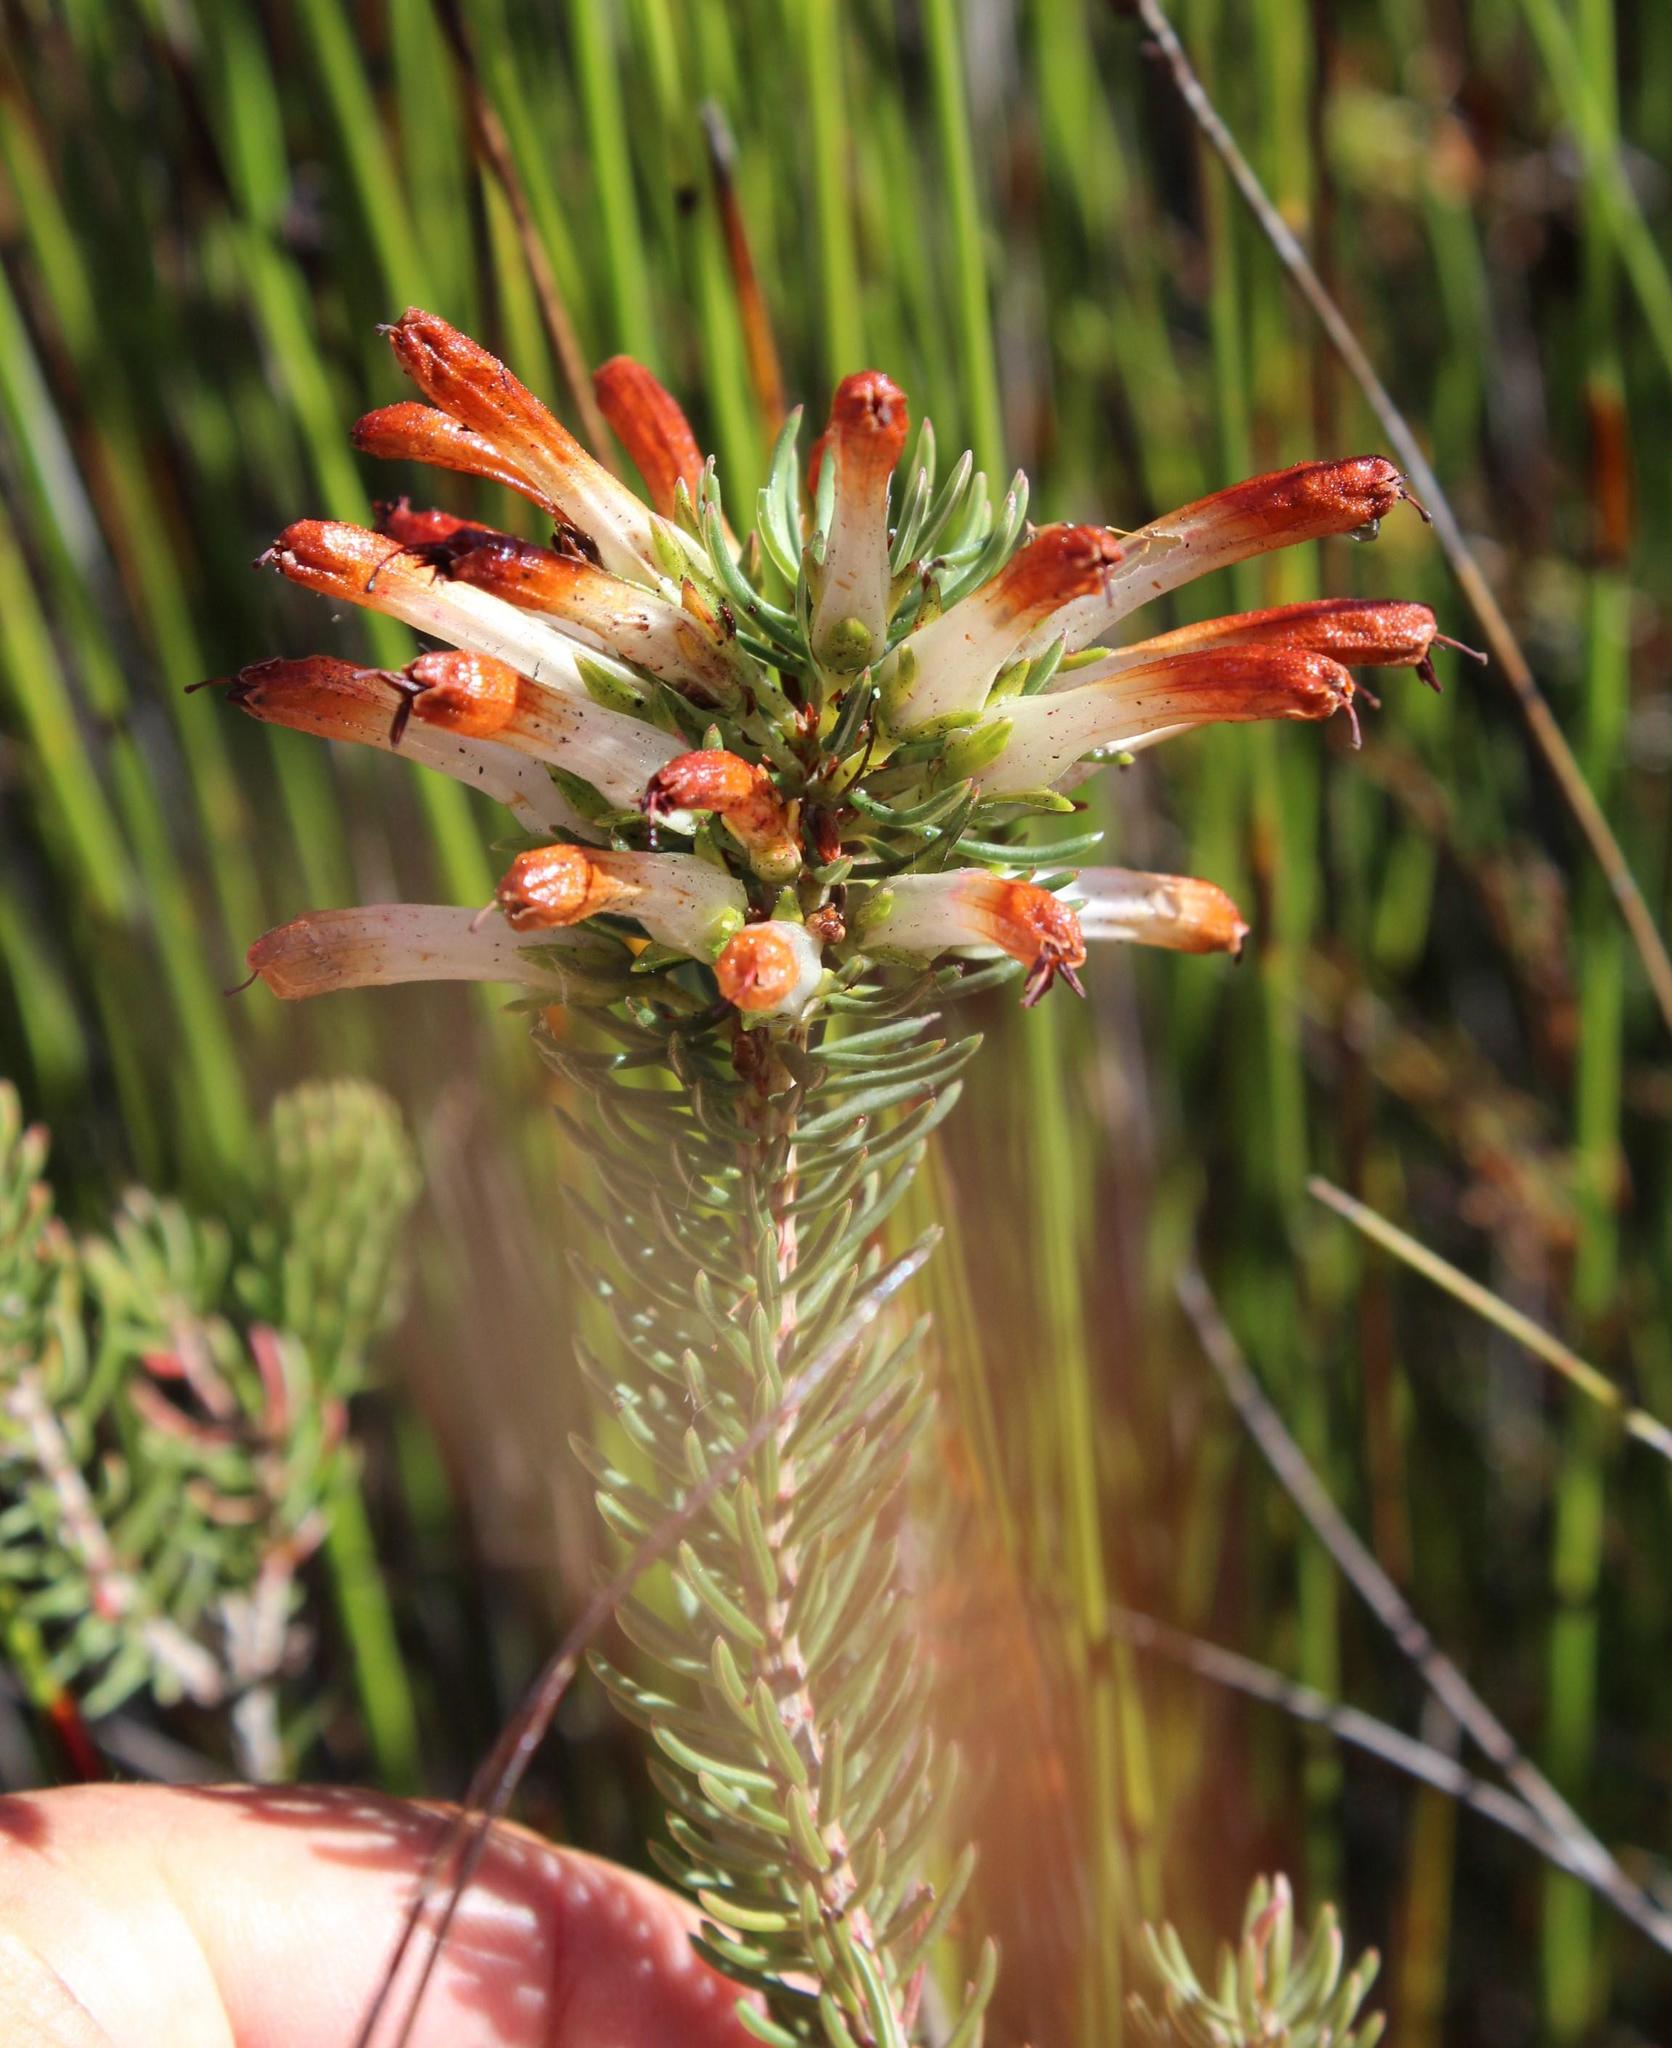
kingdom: Plantae
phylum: Tracheophyta
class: Magnoliopsida
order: Ericales
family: Ericaceae
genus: Erica
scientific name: Erica thomae
